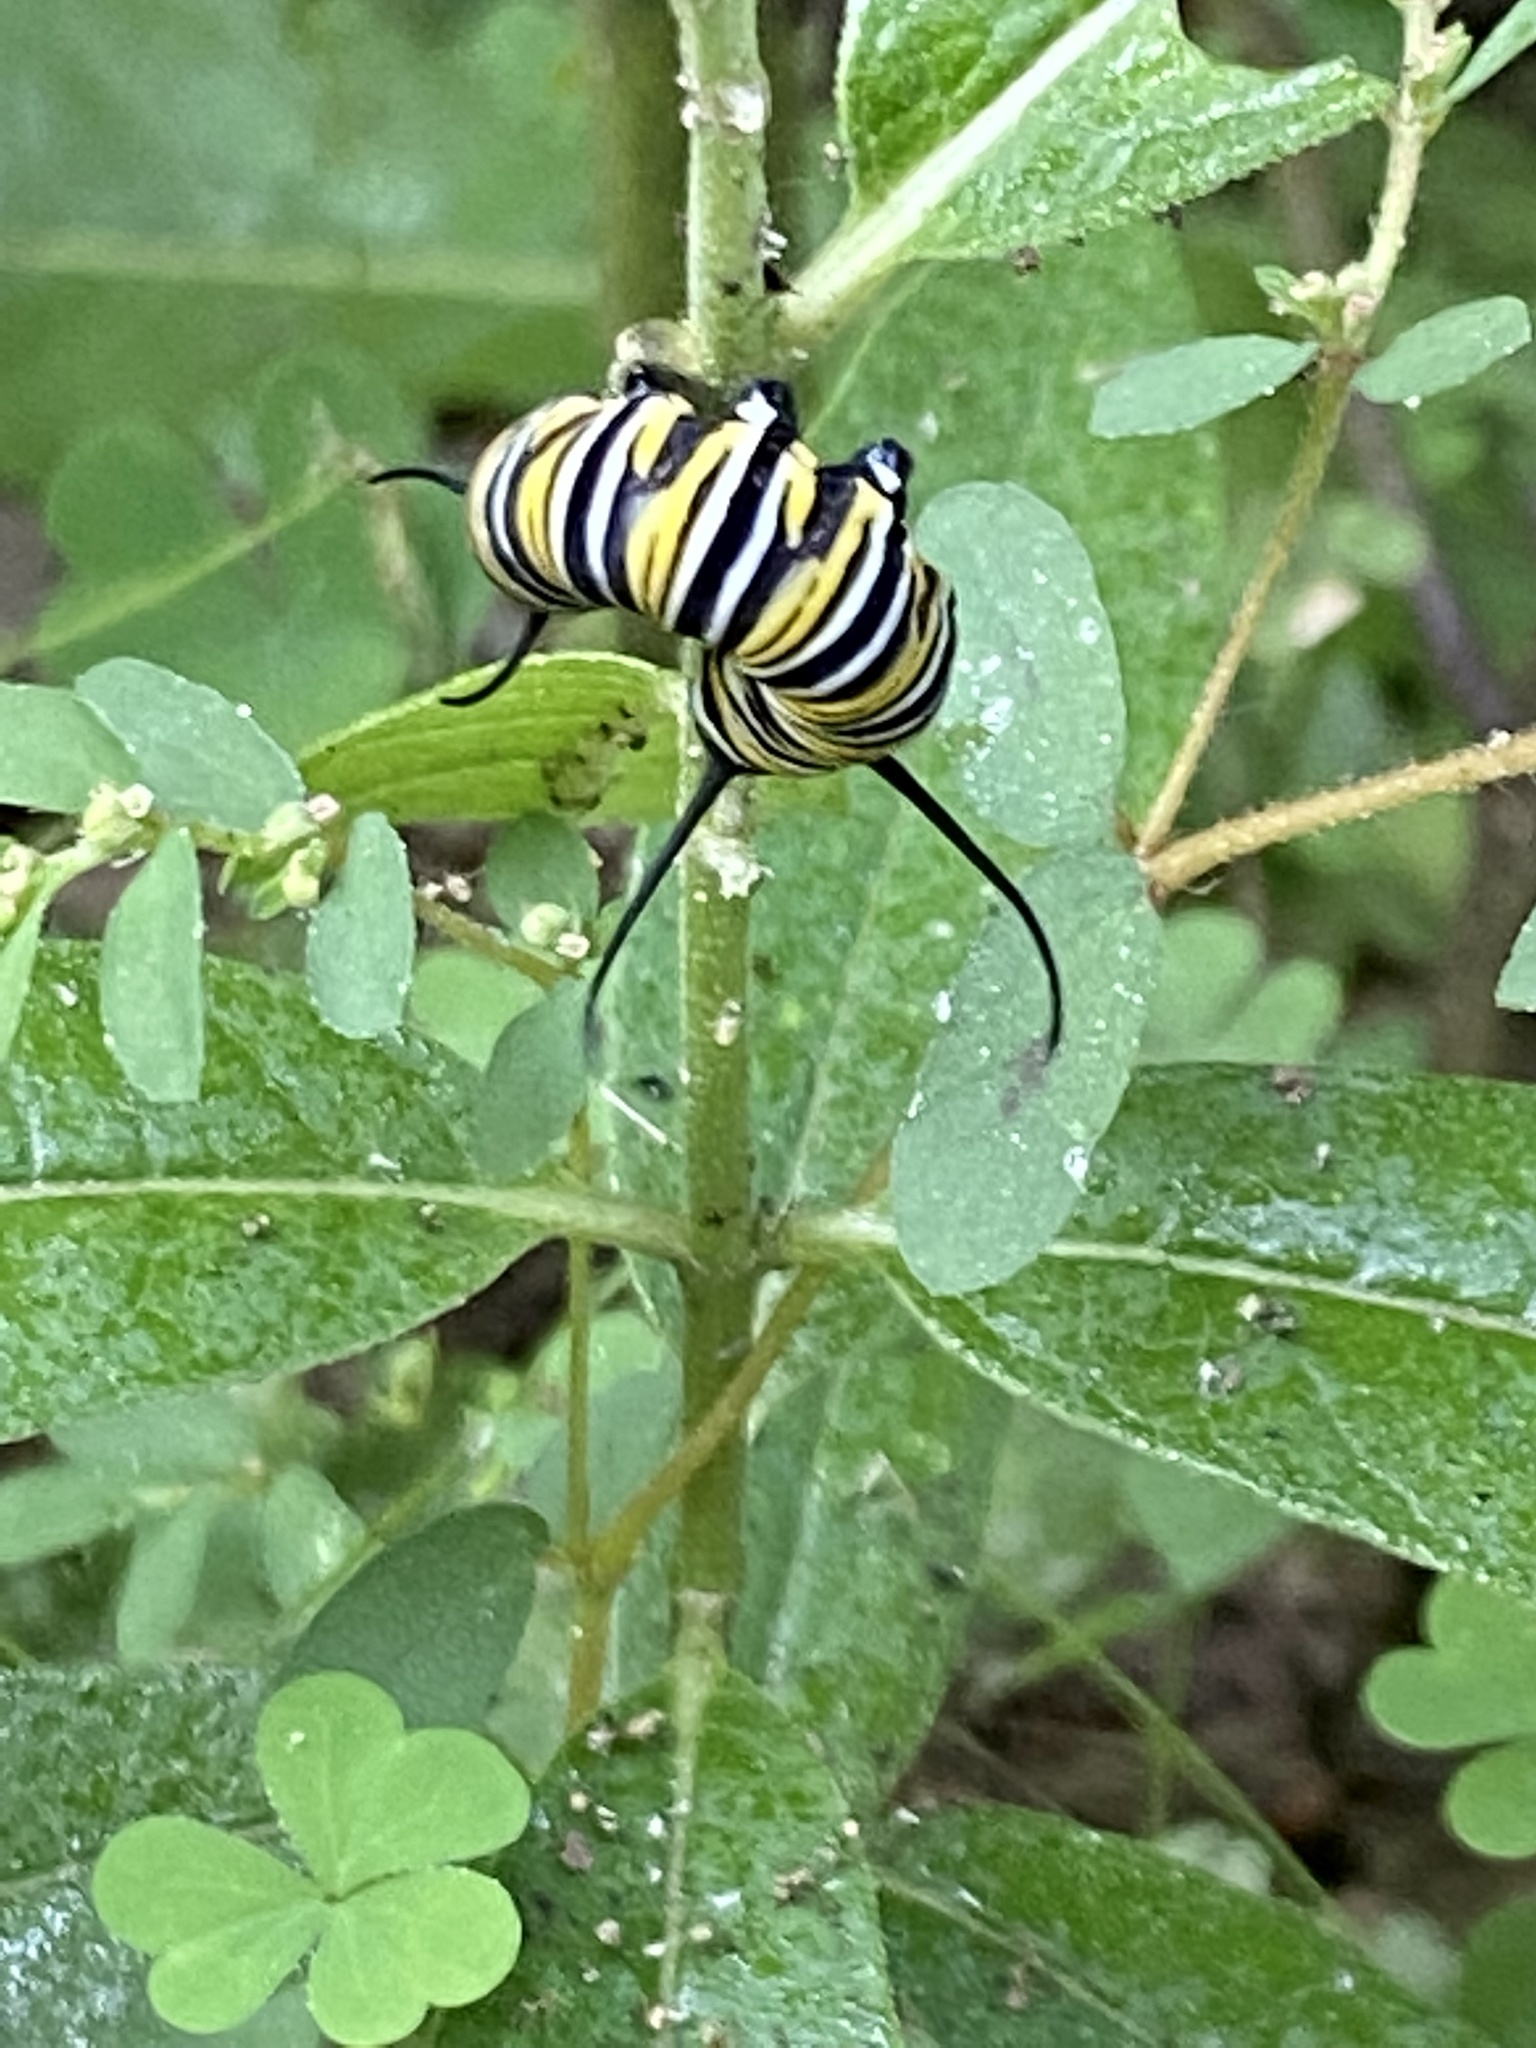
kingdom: Animalia
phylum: Arthropoda
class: Insecta
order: Lepidoptera
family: Nymphalidae
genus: Danaus
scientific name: Danaus plexippus
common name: Monarch
